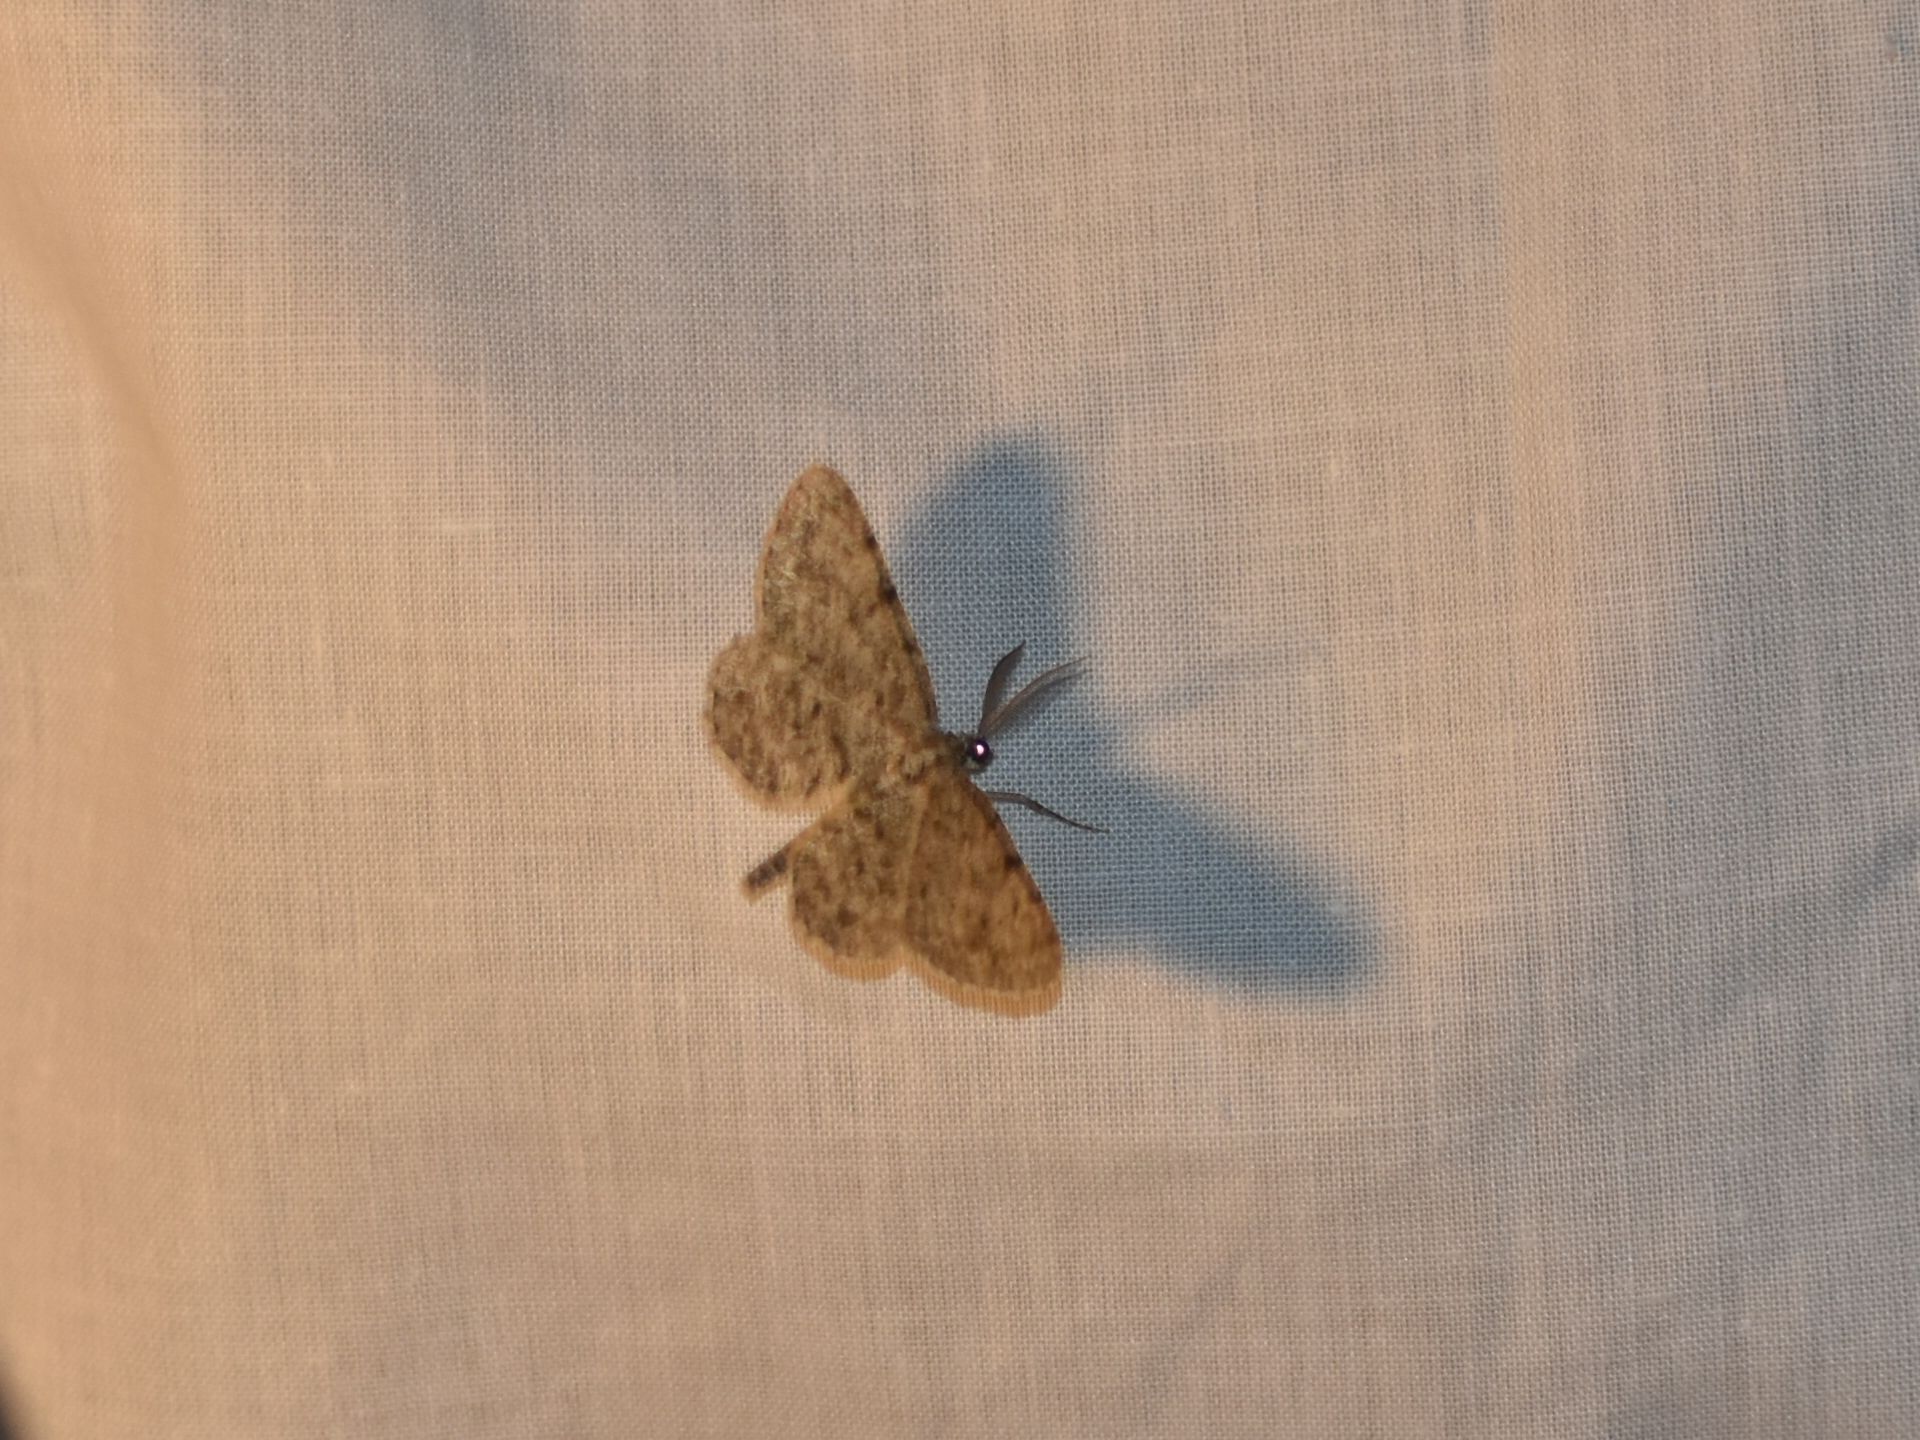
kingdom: Animalia
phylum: Arthropoda
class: Insecta
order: Lepidoptera
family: Geometridae
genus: Protoboarmia
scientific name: Protoboarmia porcelaria
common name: Porcelain gray
